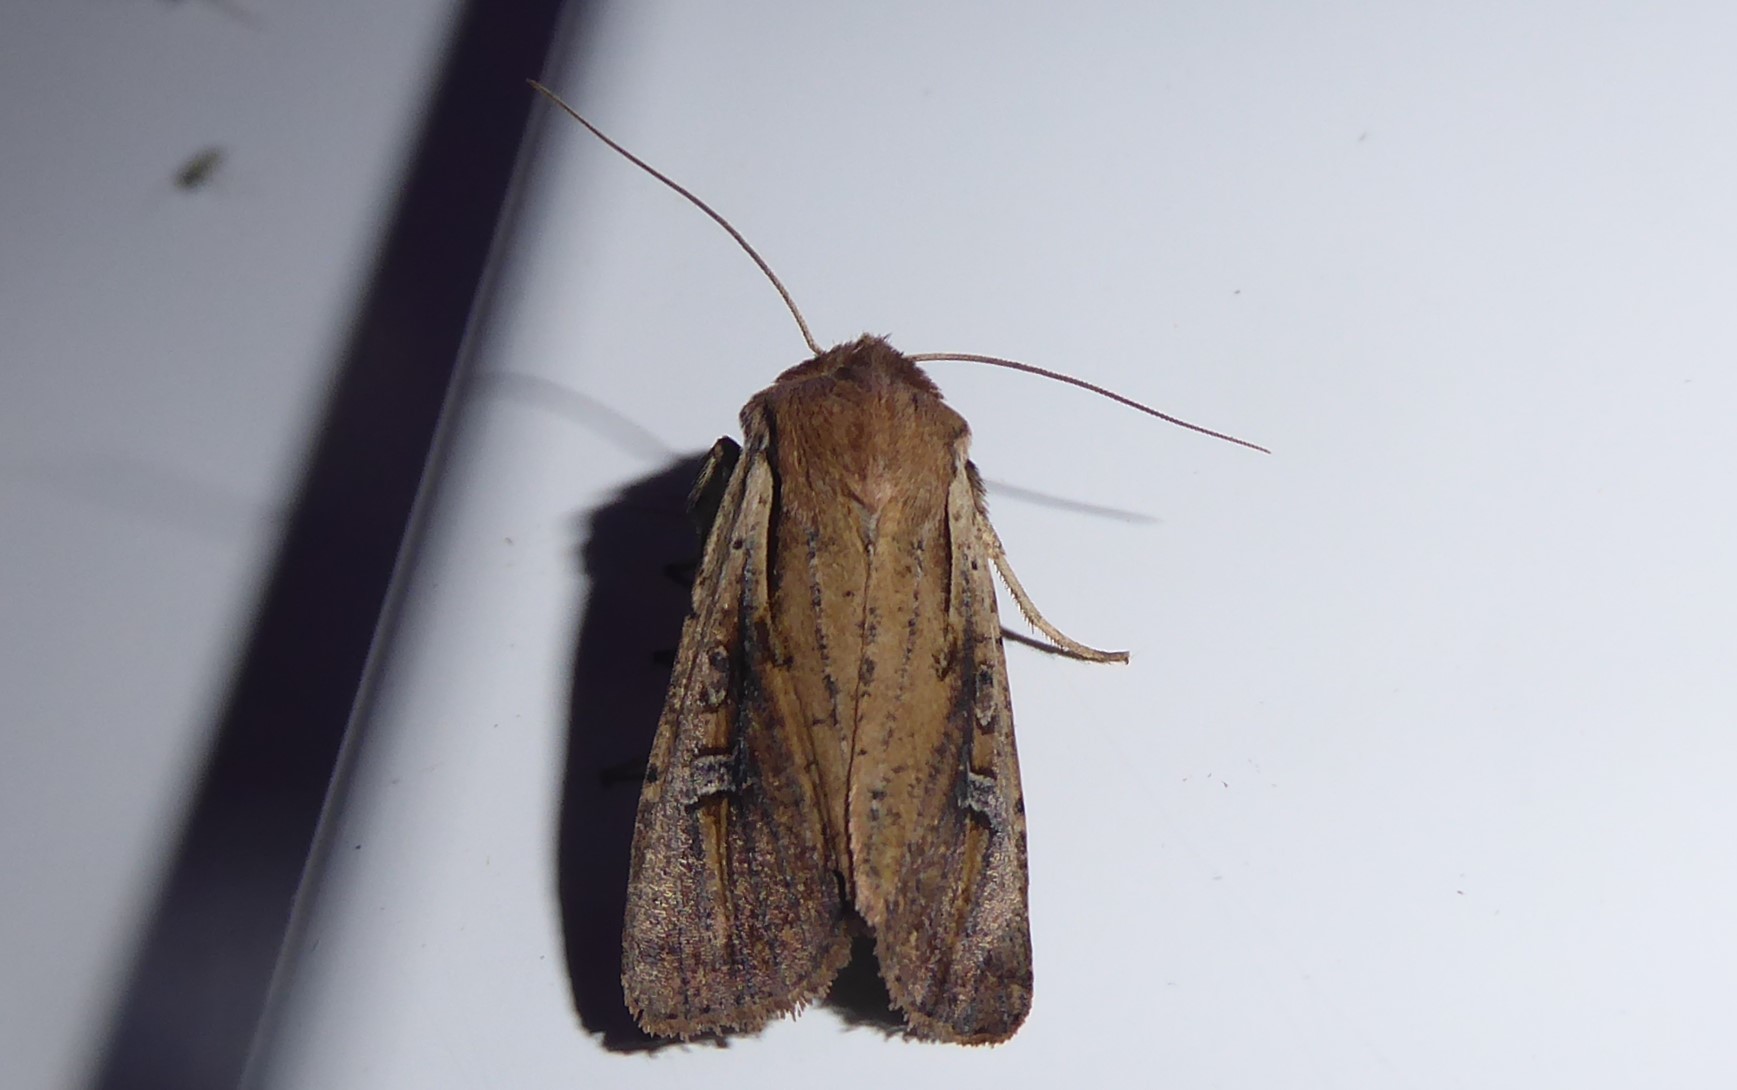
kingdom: Animalia
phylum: Arthropoda
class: Insecta
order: Lepidoptera
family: Noctuidae
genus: Ichneutica
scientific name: Ichneutica atristriga
